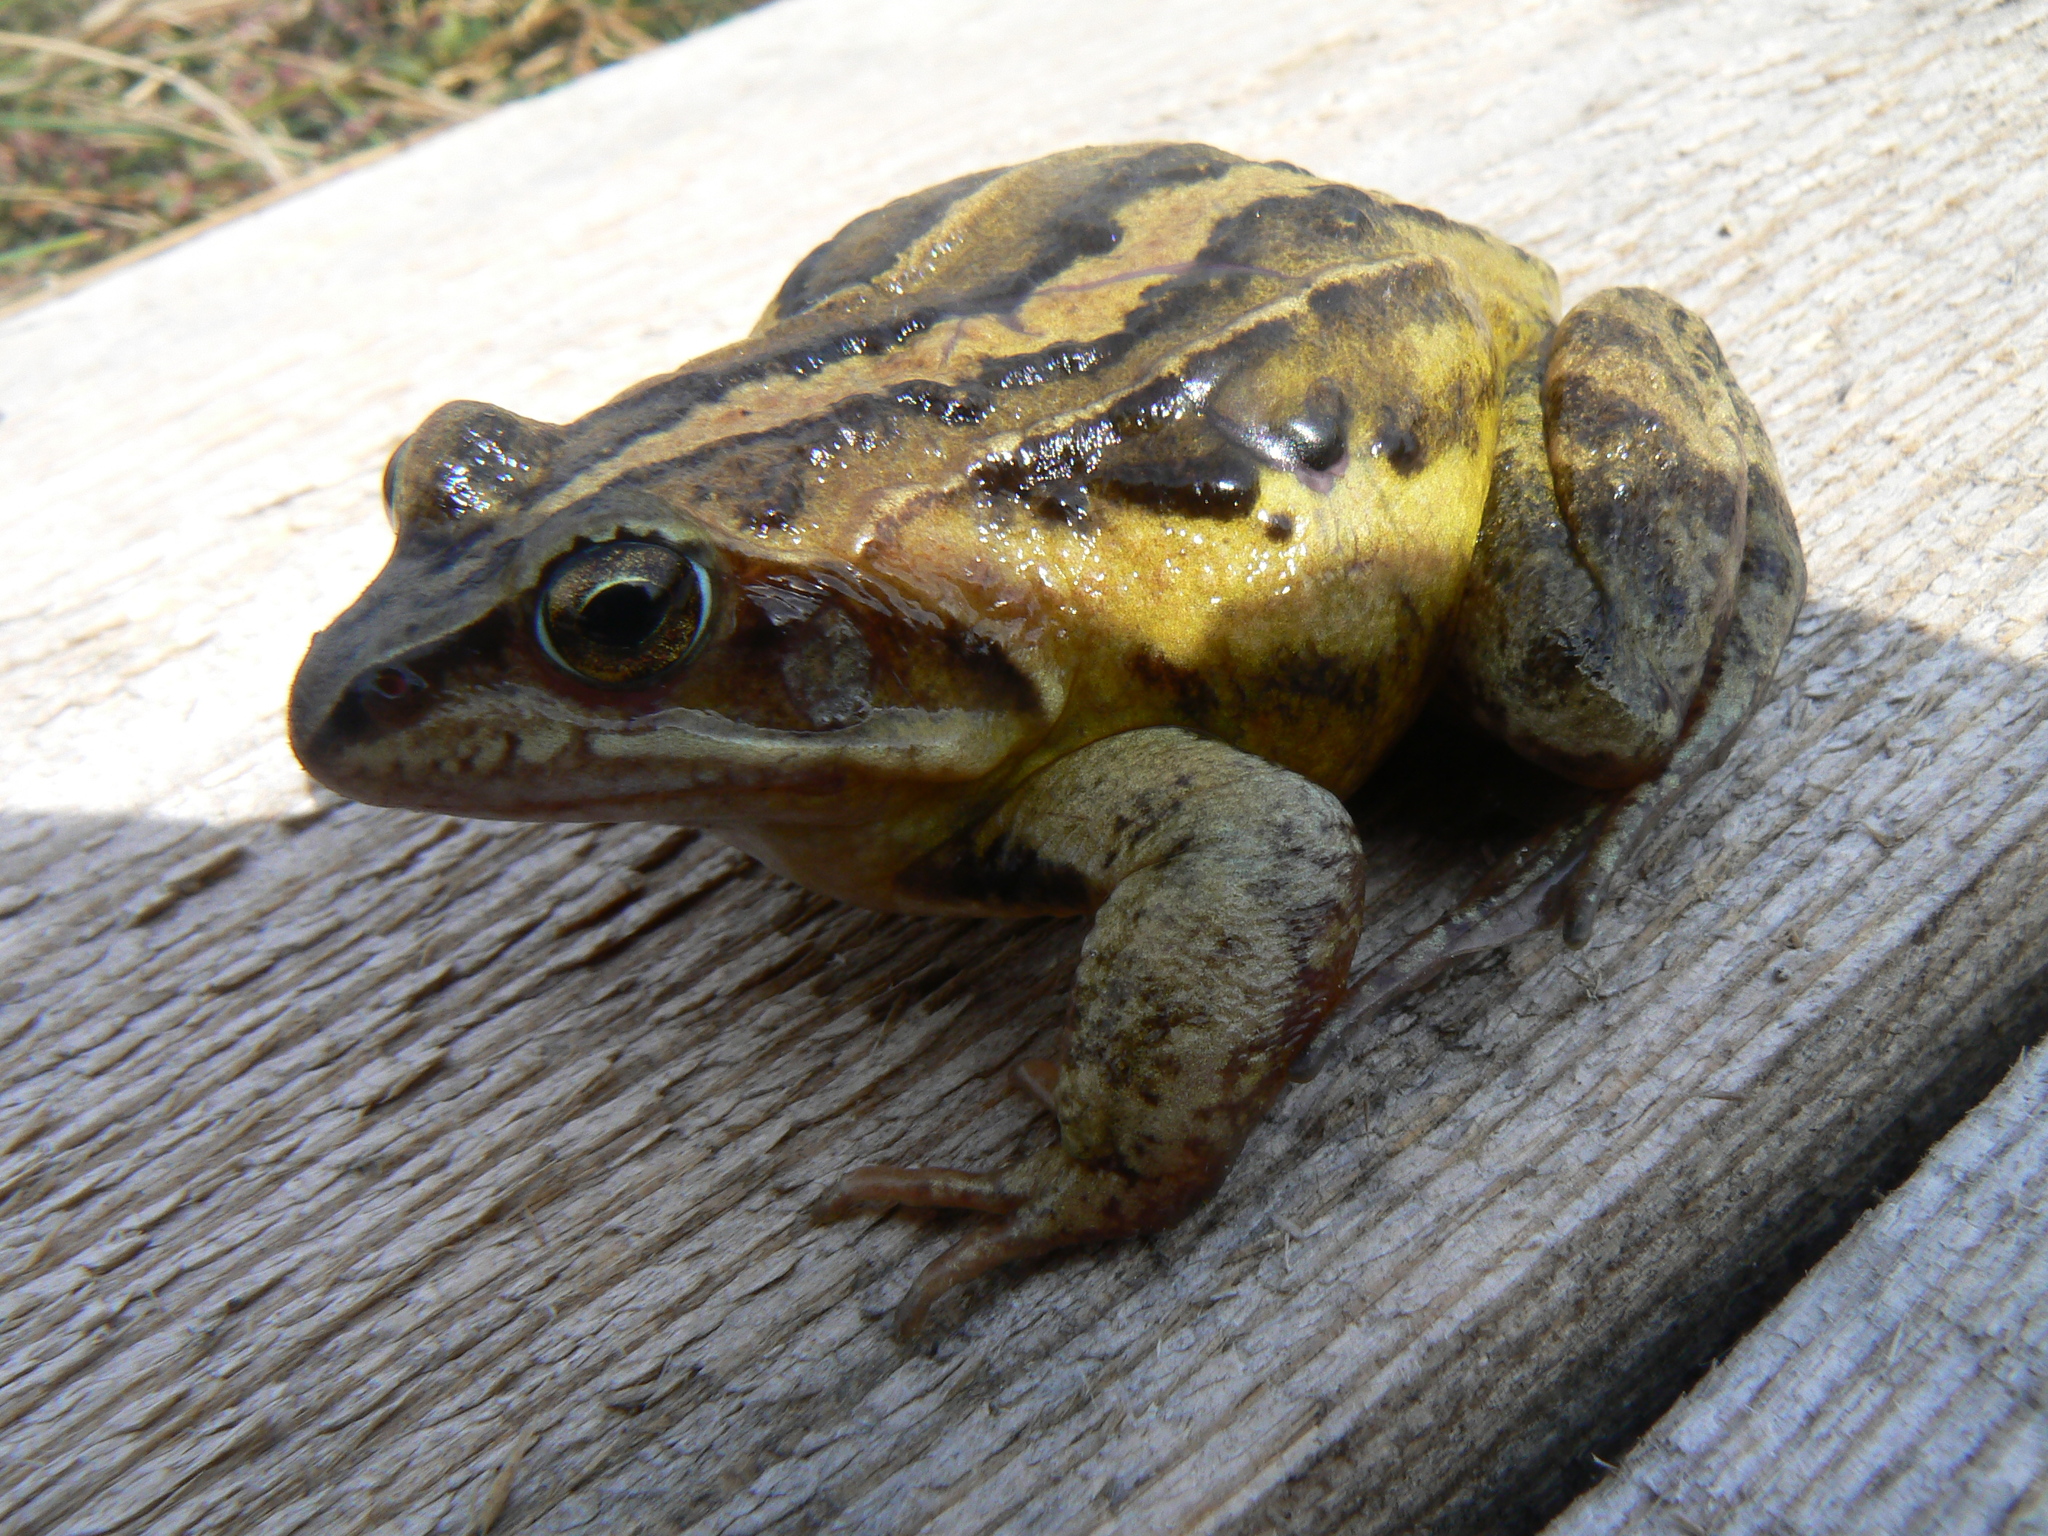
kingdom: Animalia
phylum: Chordata
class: Amphibia
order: Anura
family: Ranidae
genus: Rana
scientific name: Rana arvalis
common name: Moor frog
